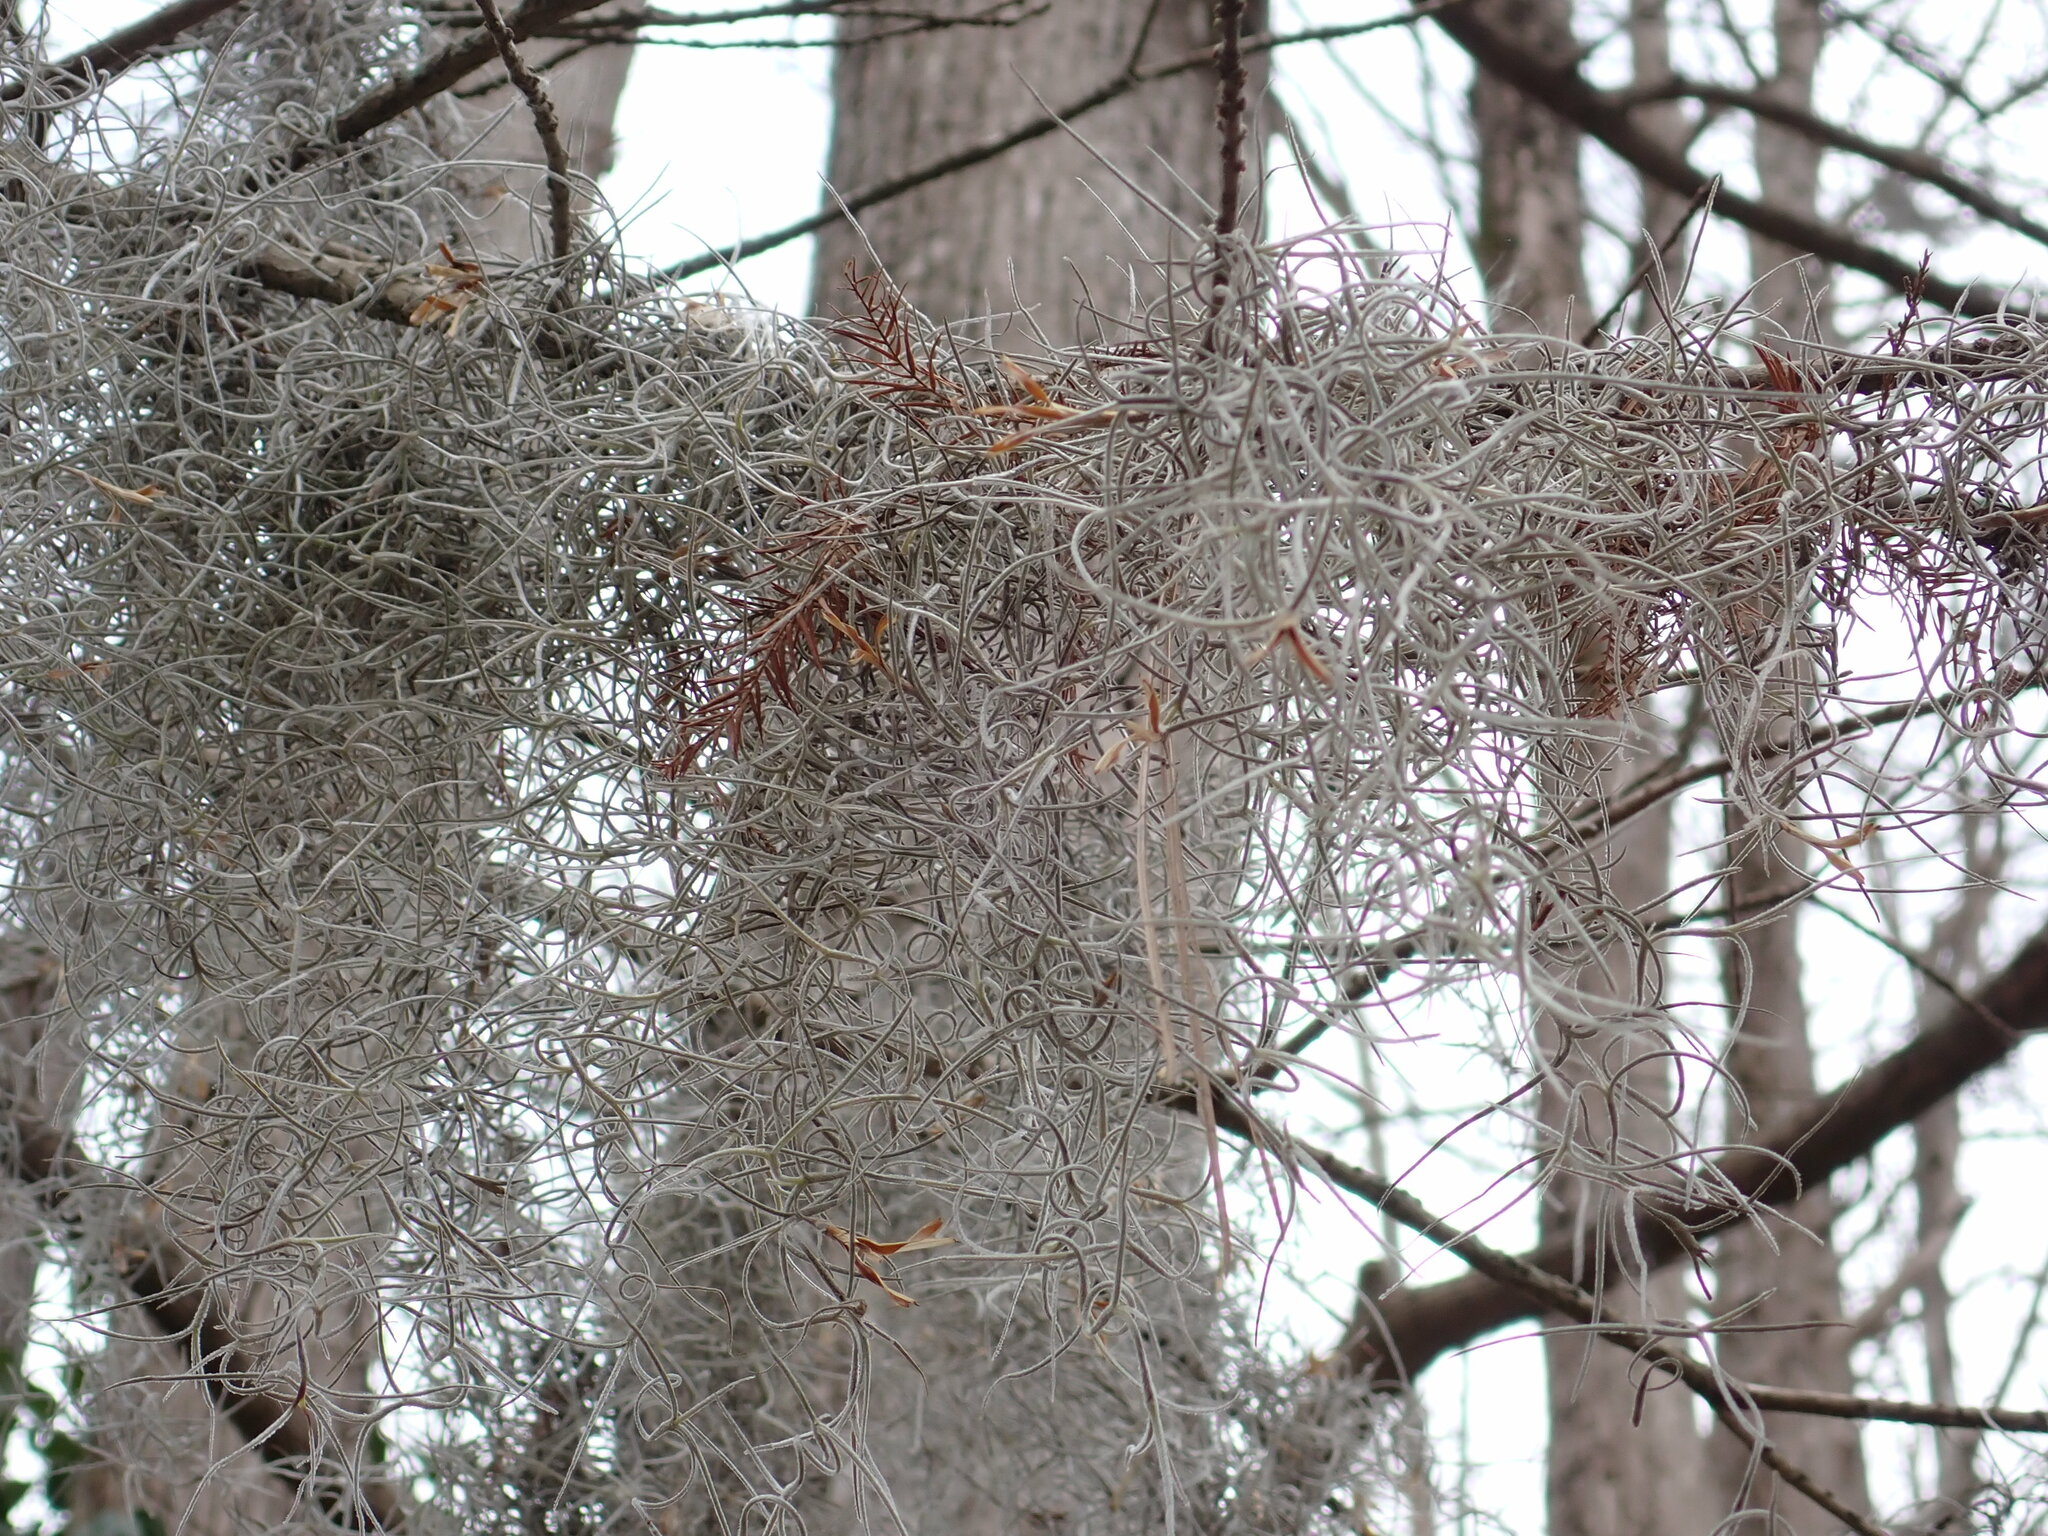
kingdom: Plantae
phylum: Tracheophyta
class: Liliopsida
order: Poales
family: Bromeliaceae
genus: Tillandsia
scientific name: Tillandsia usneoides
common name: Spanish moss
